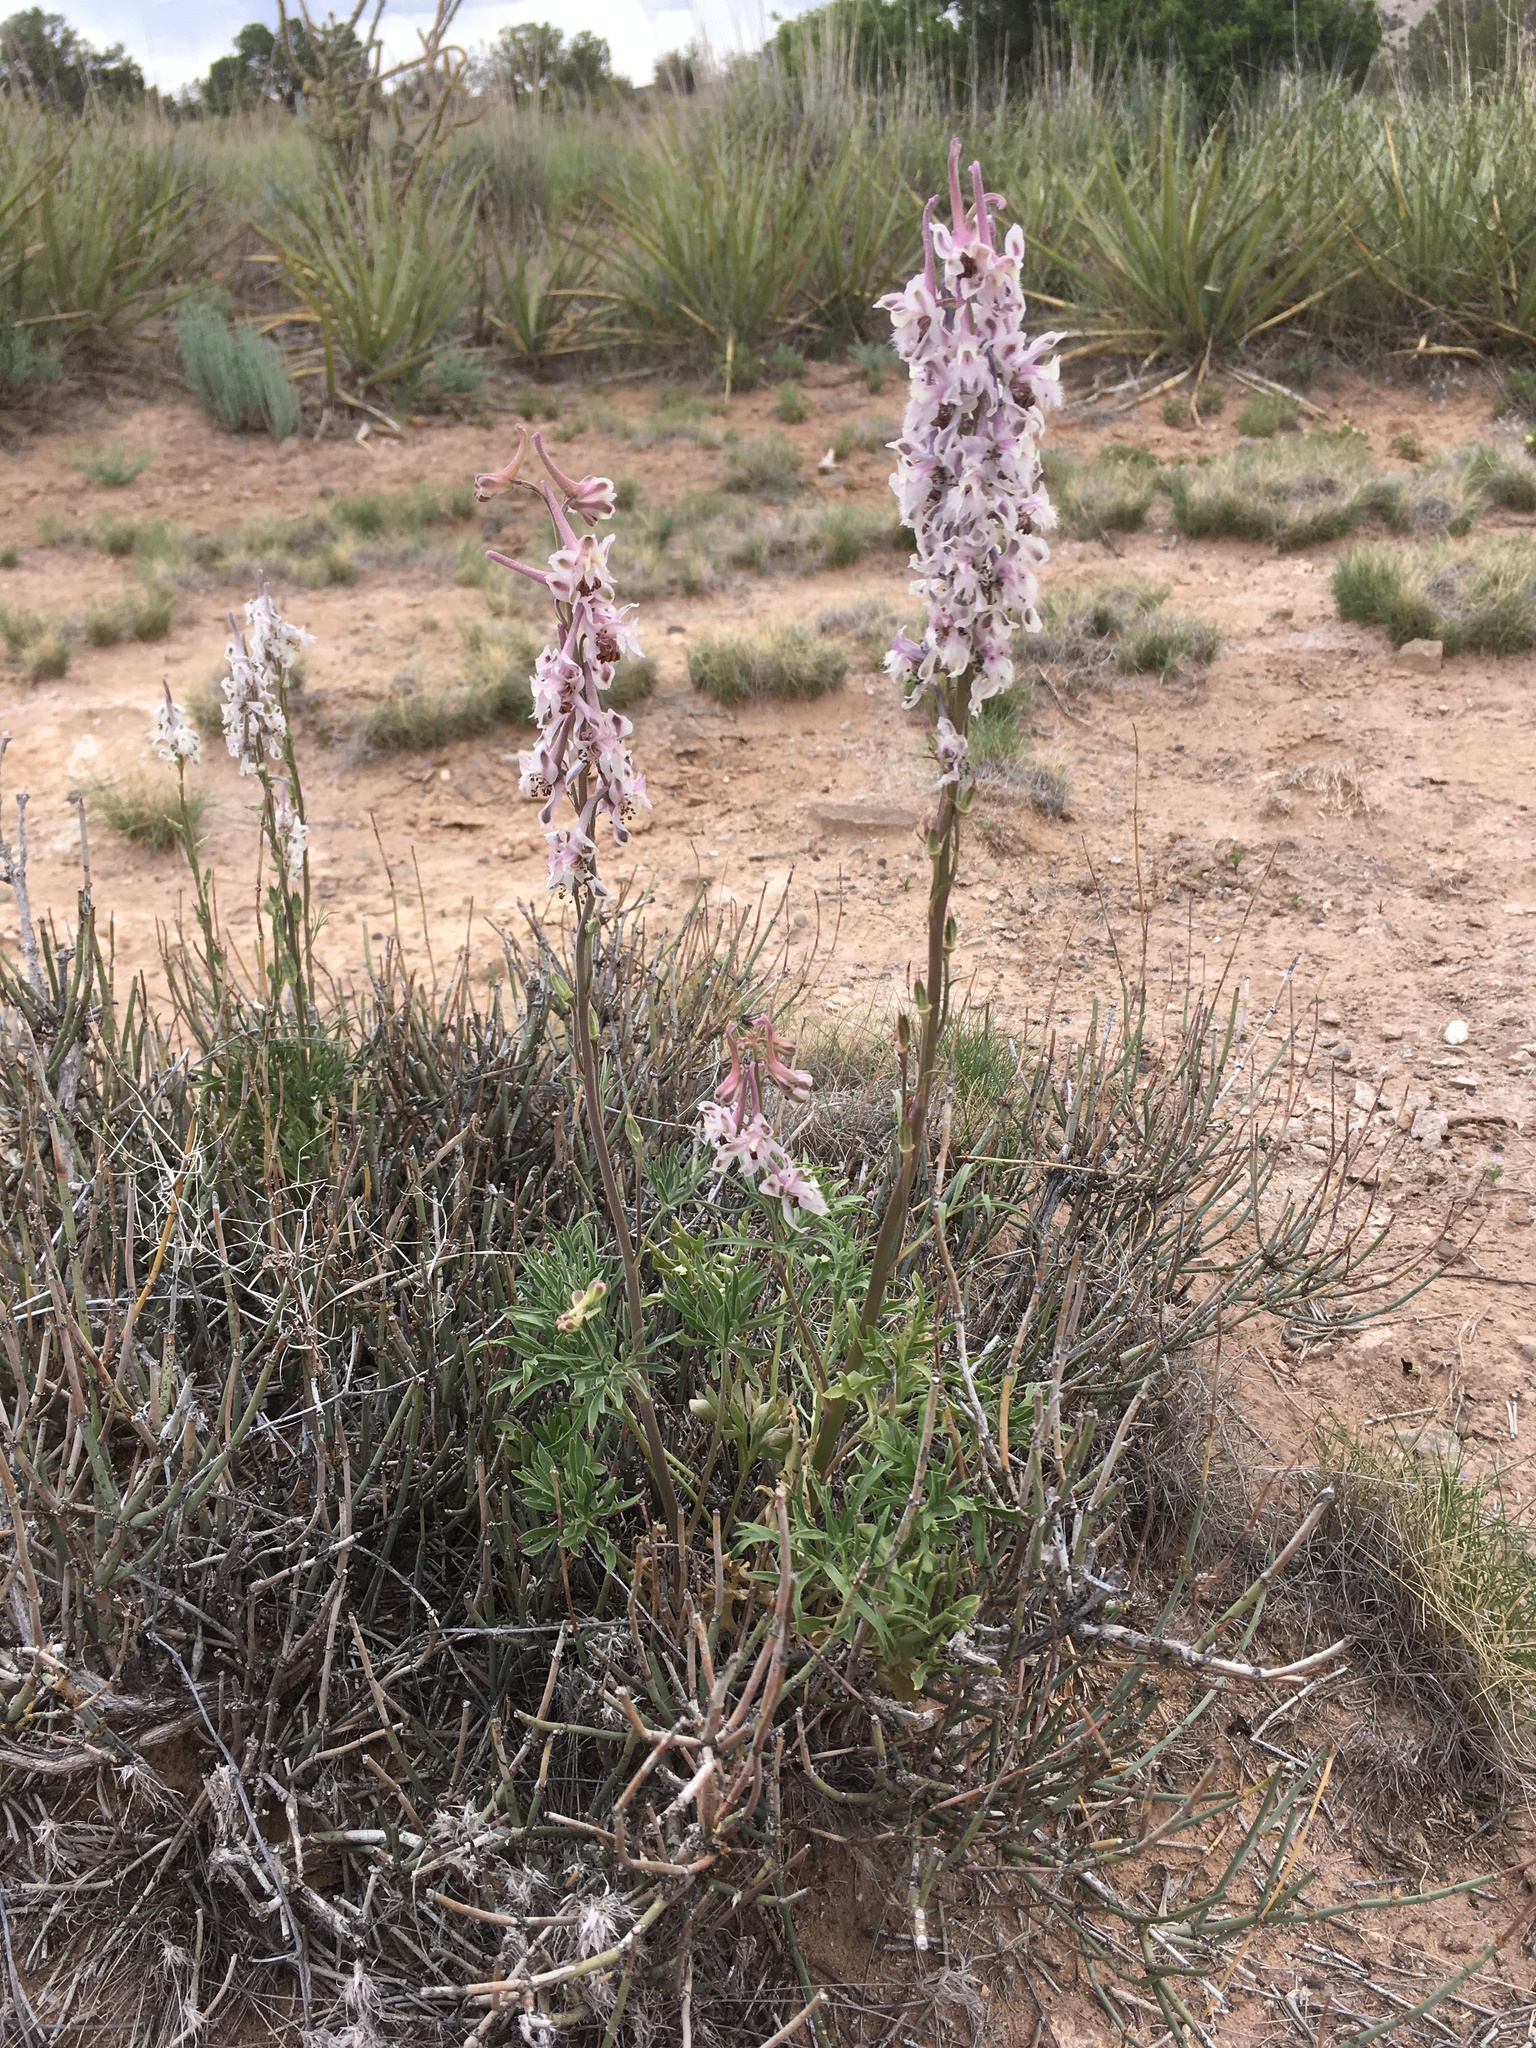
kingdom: Plantae
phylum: Tracheophyta
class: Magnoliopsida
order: Ranunculales
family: Ranunculaceae
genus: Delphinium
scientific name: Delphinium wootonii
